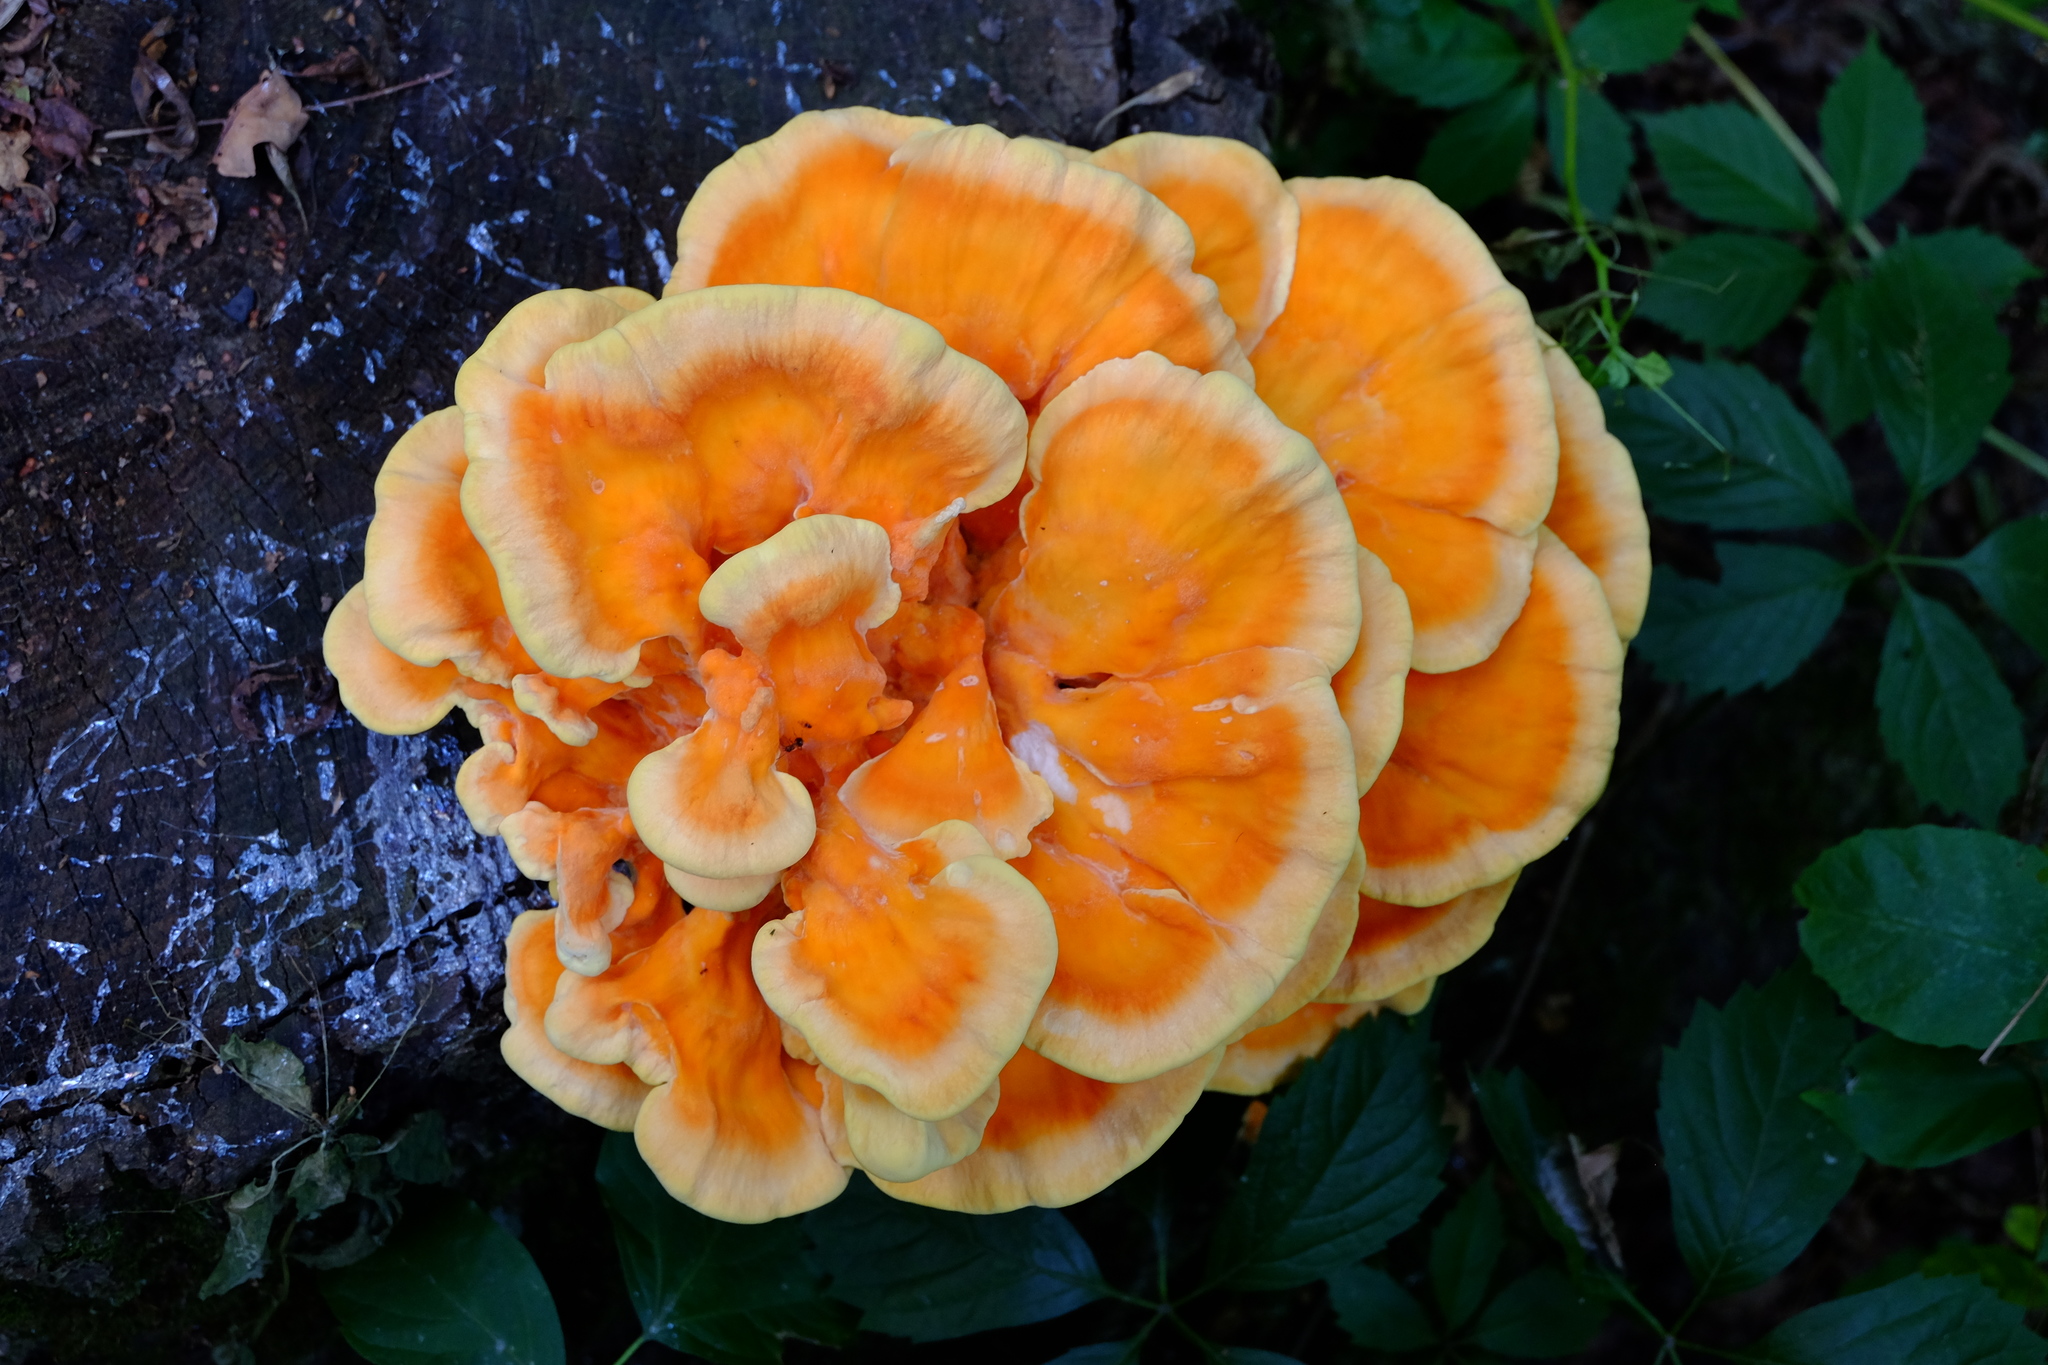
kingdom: Fungi
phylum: Basidiomycota
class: Agaricomycetes
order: Polyporales
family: Laetiporaceae
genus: Laetiporus
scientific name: Laetiporus sulphureus
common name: Chicken of the woods
